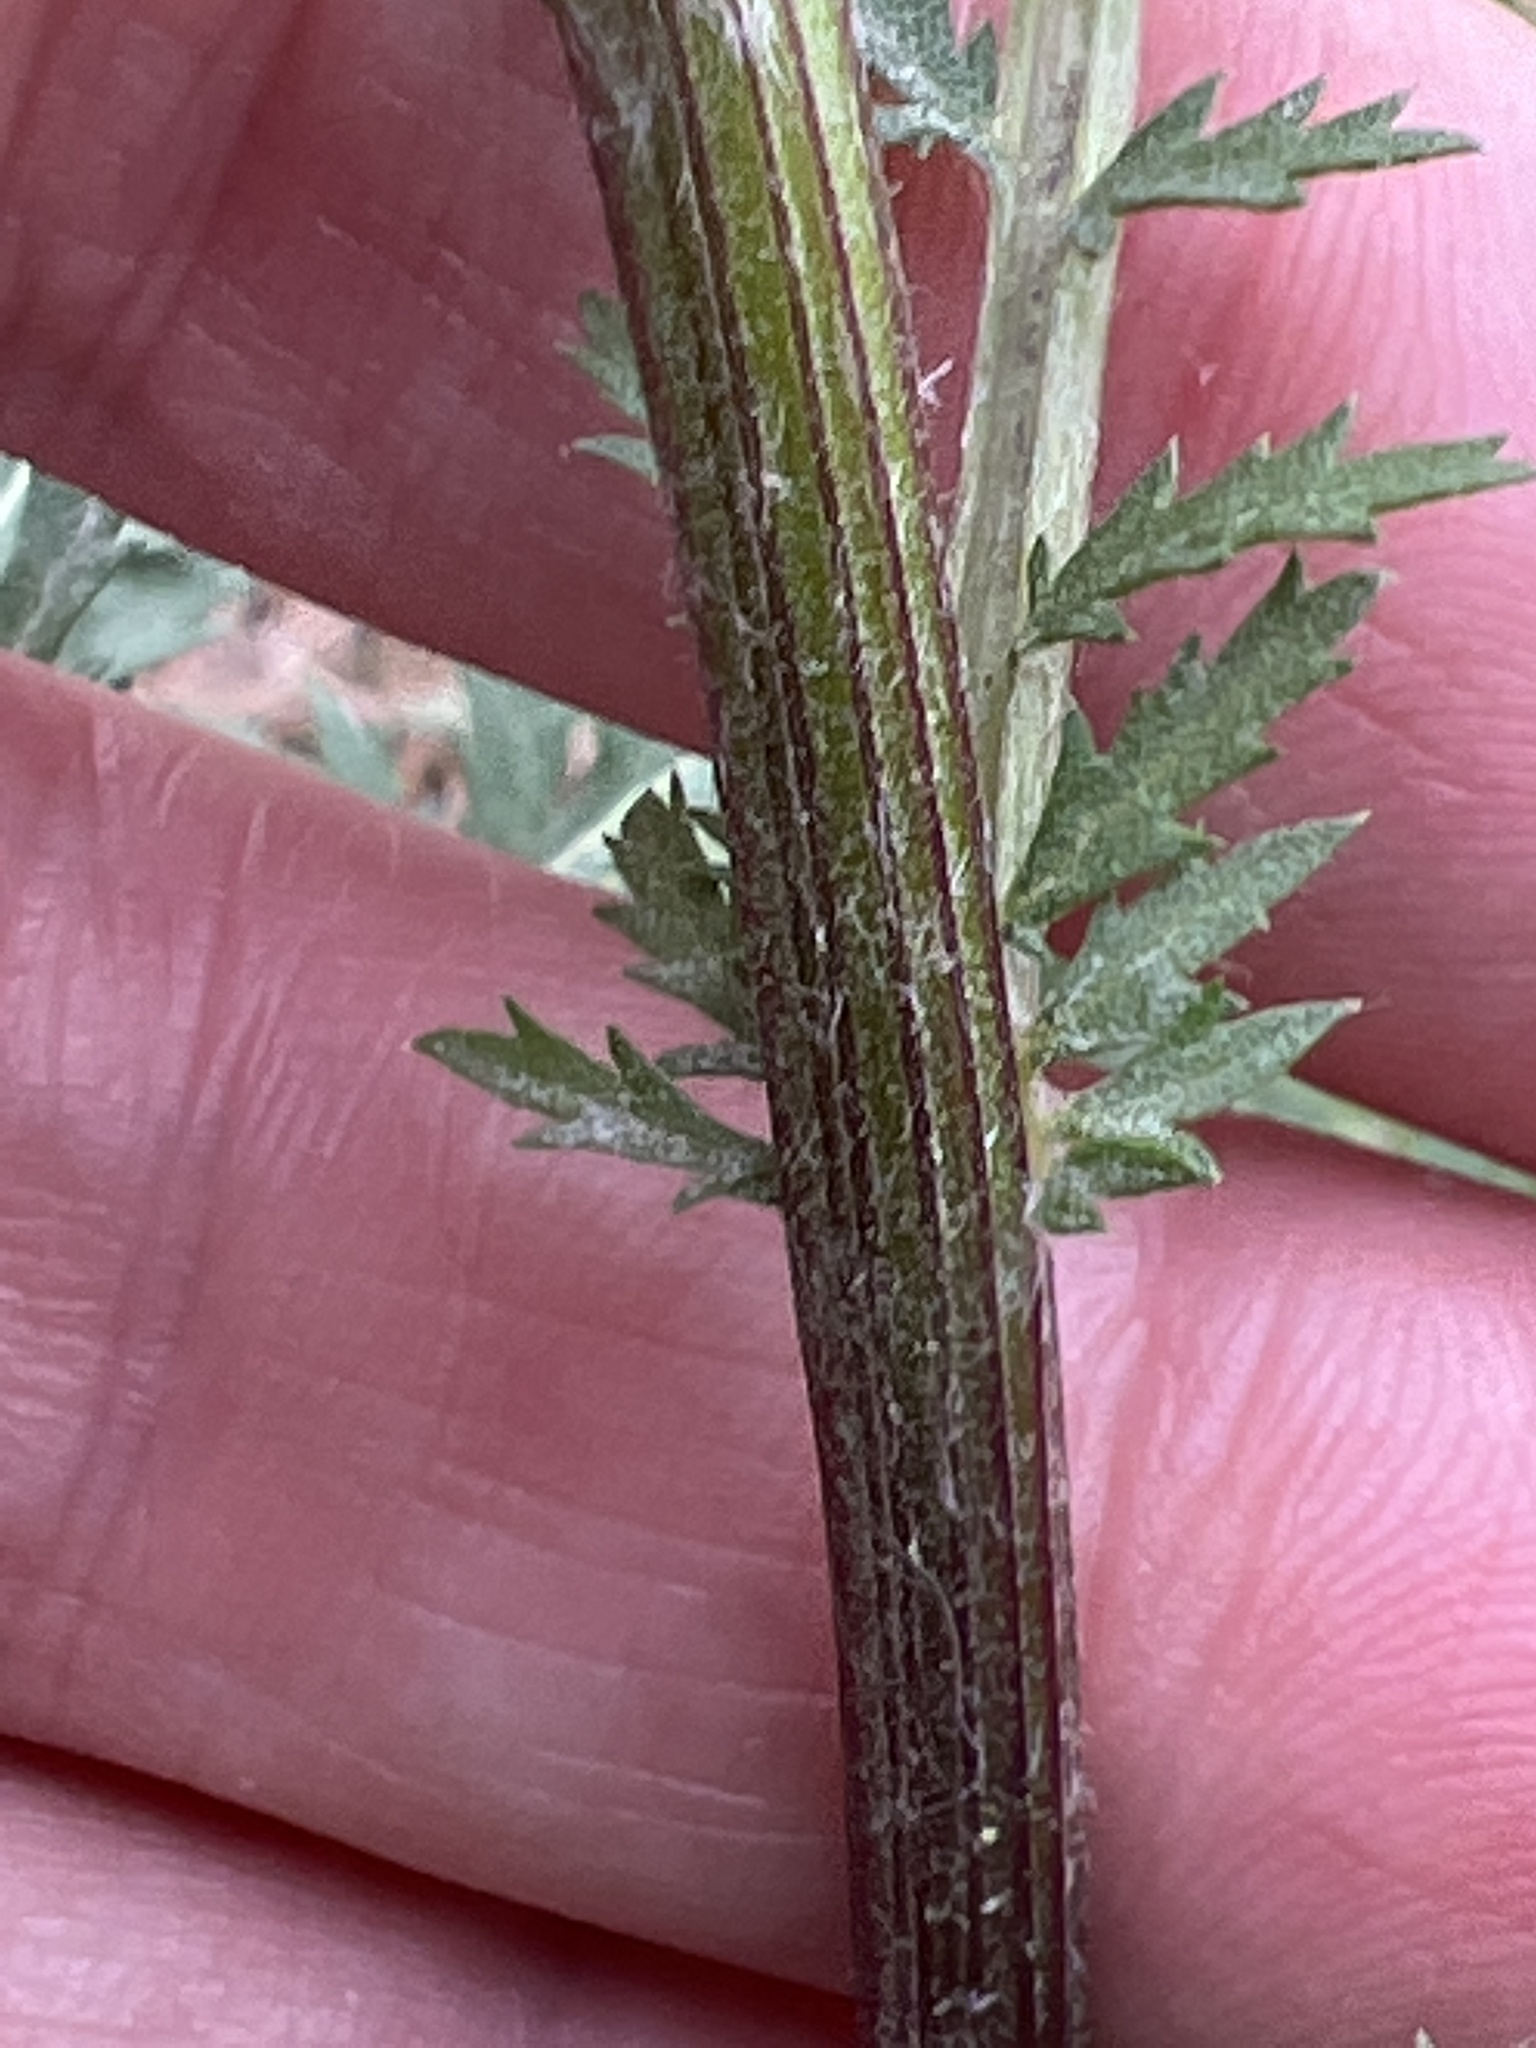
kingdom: Plantae
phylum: Tracheophyta
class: Magnoliopsida
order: Asterales
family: Asteraceae
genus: Tanacetum
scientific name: Tanacetum vulgare
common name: Common tansy
